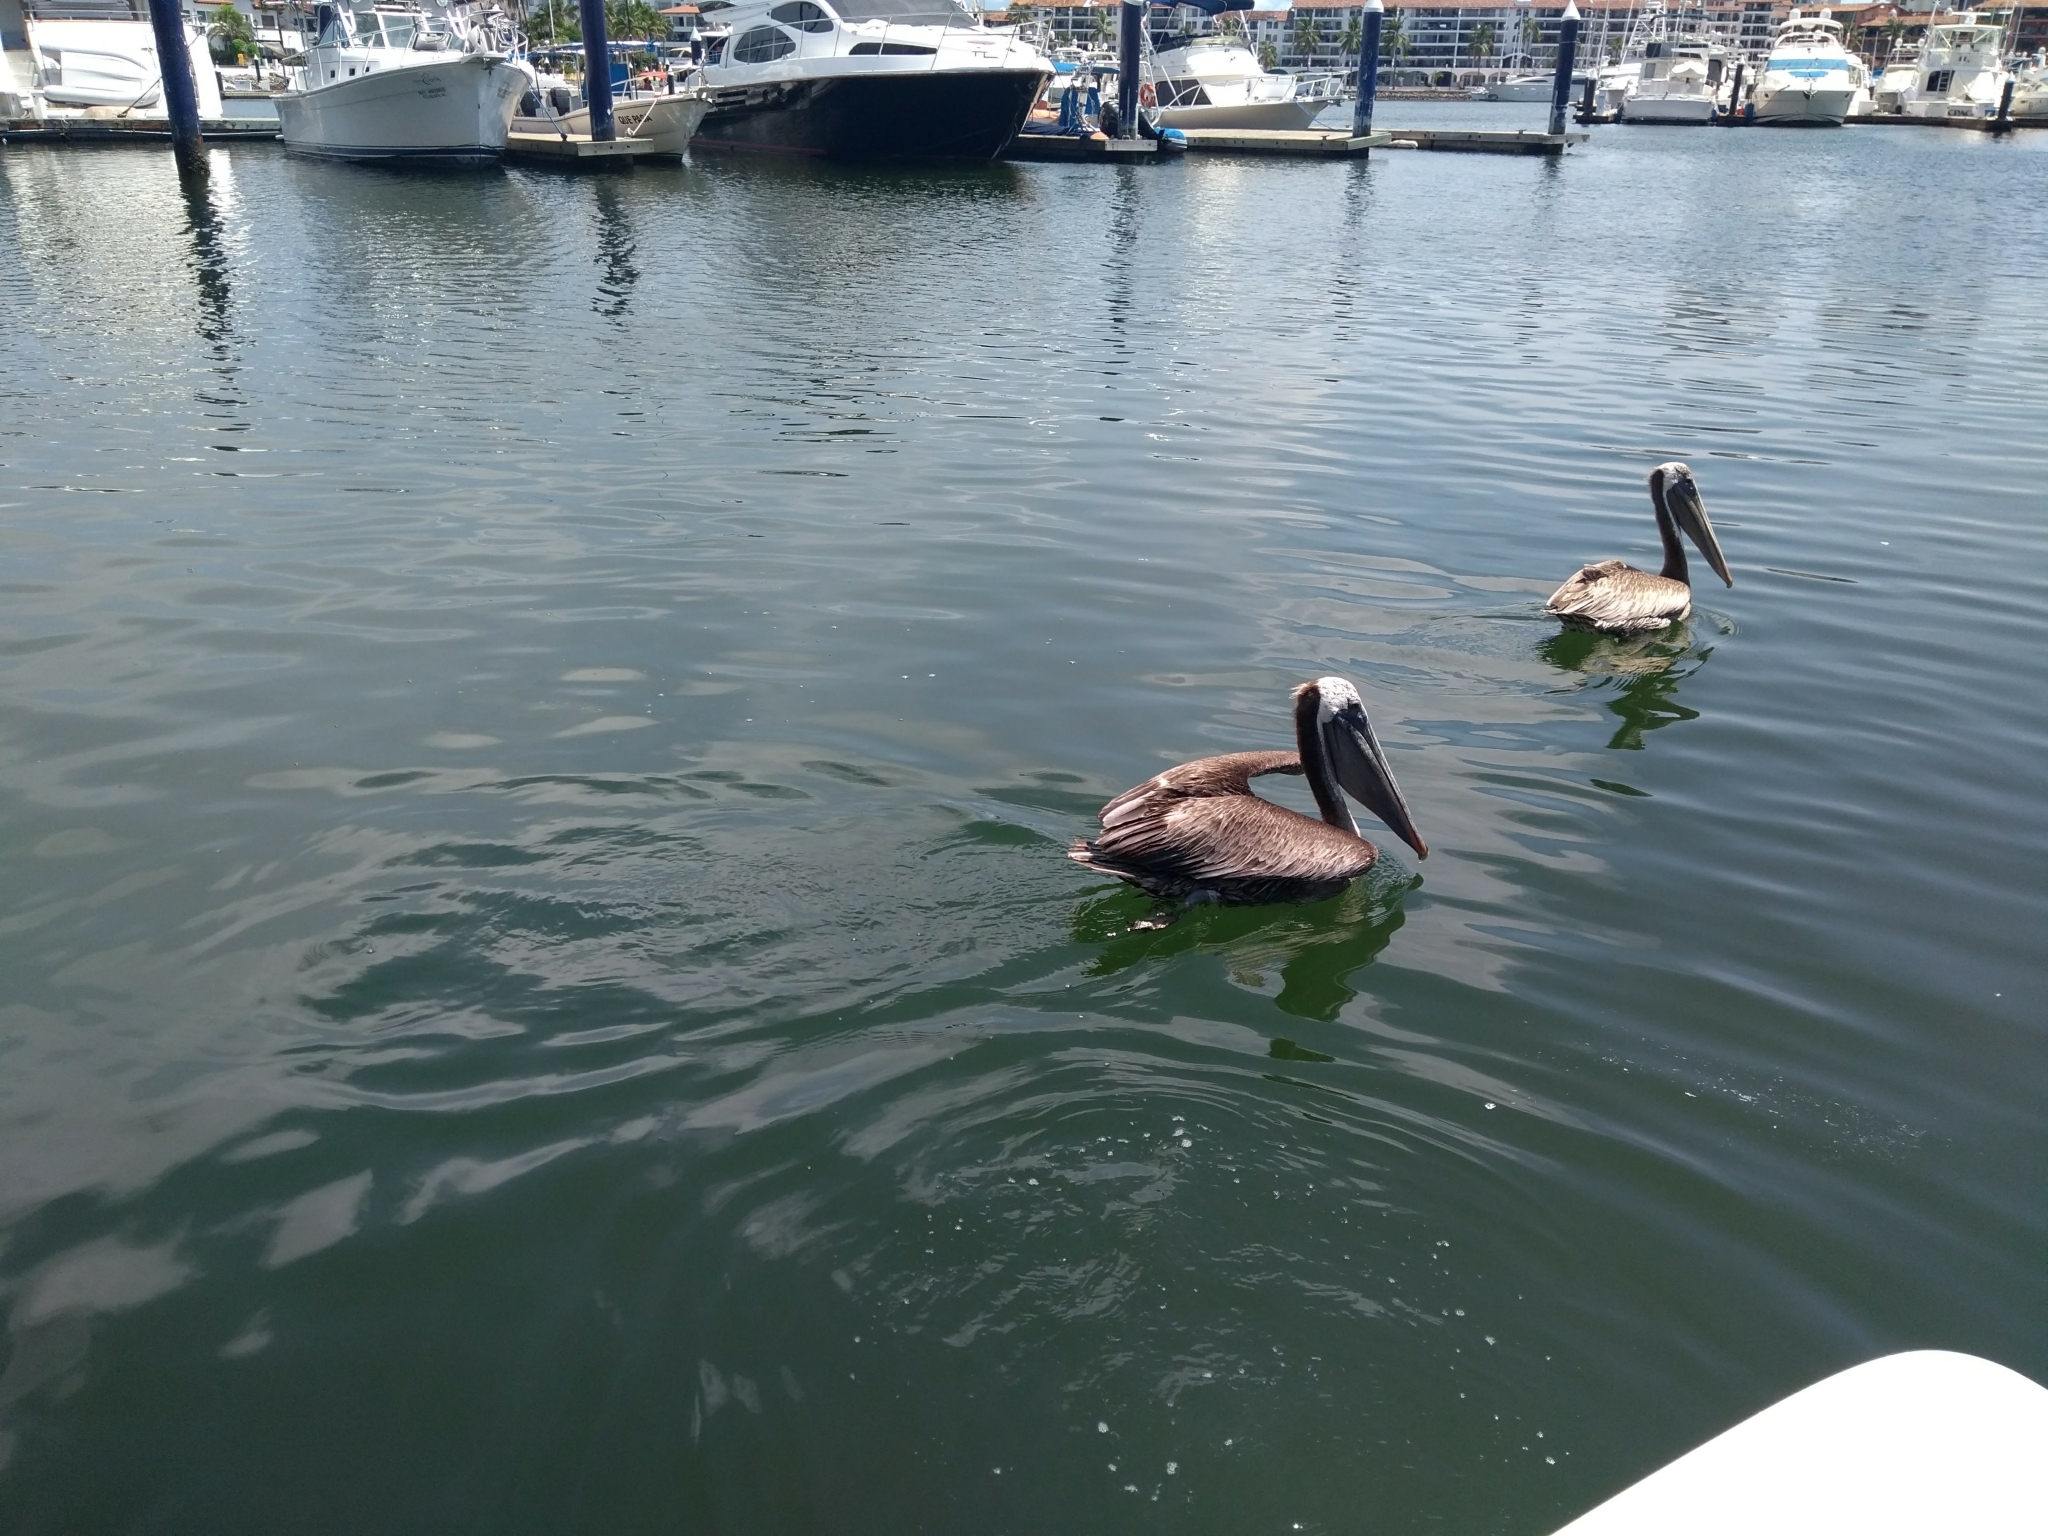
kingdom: Animalia
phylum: Chordata
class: Aves
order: Pelecaniformes
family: Pelecanidae
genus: Pelecanus
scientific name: Pelecanus occidentalis
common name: Brown pelican
